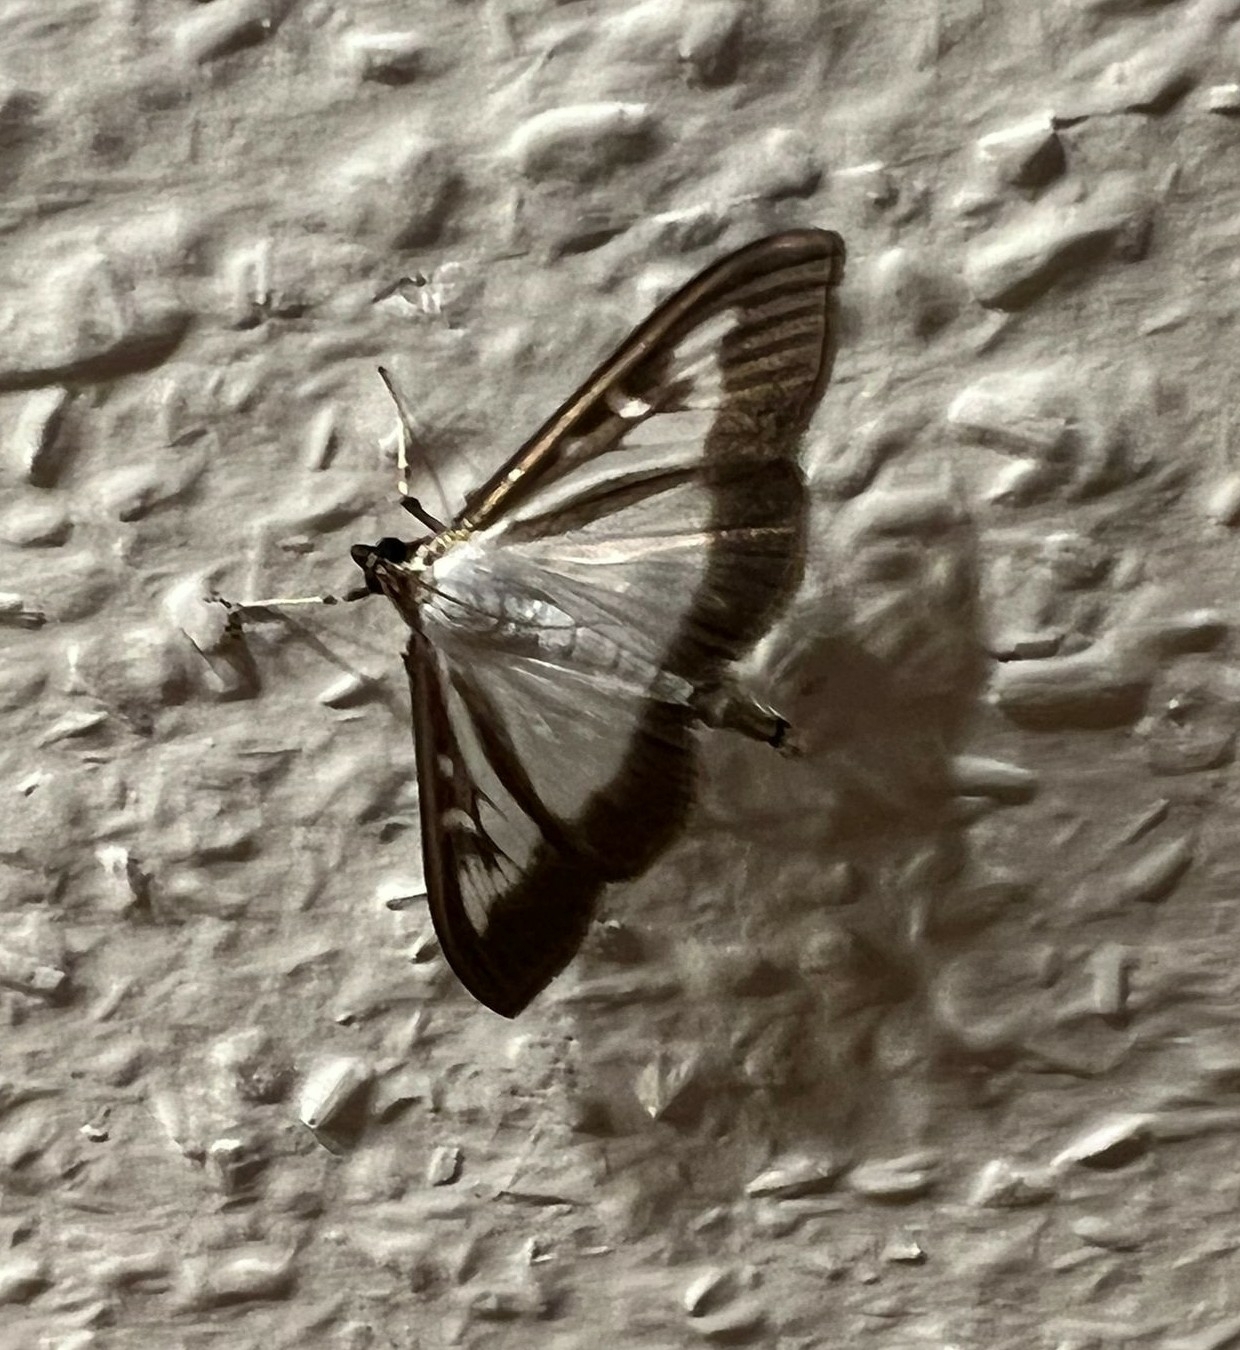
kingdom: Animalia
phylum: Arthropoda
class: Insecta
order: Lepidoptera
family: Crambidae
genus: Cydalima
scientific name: Cydalima perspectalis
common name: Box tree moth
